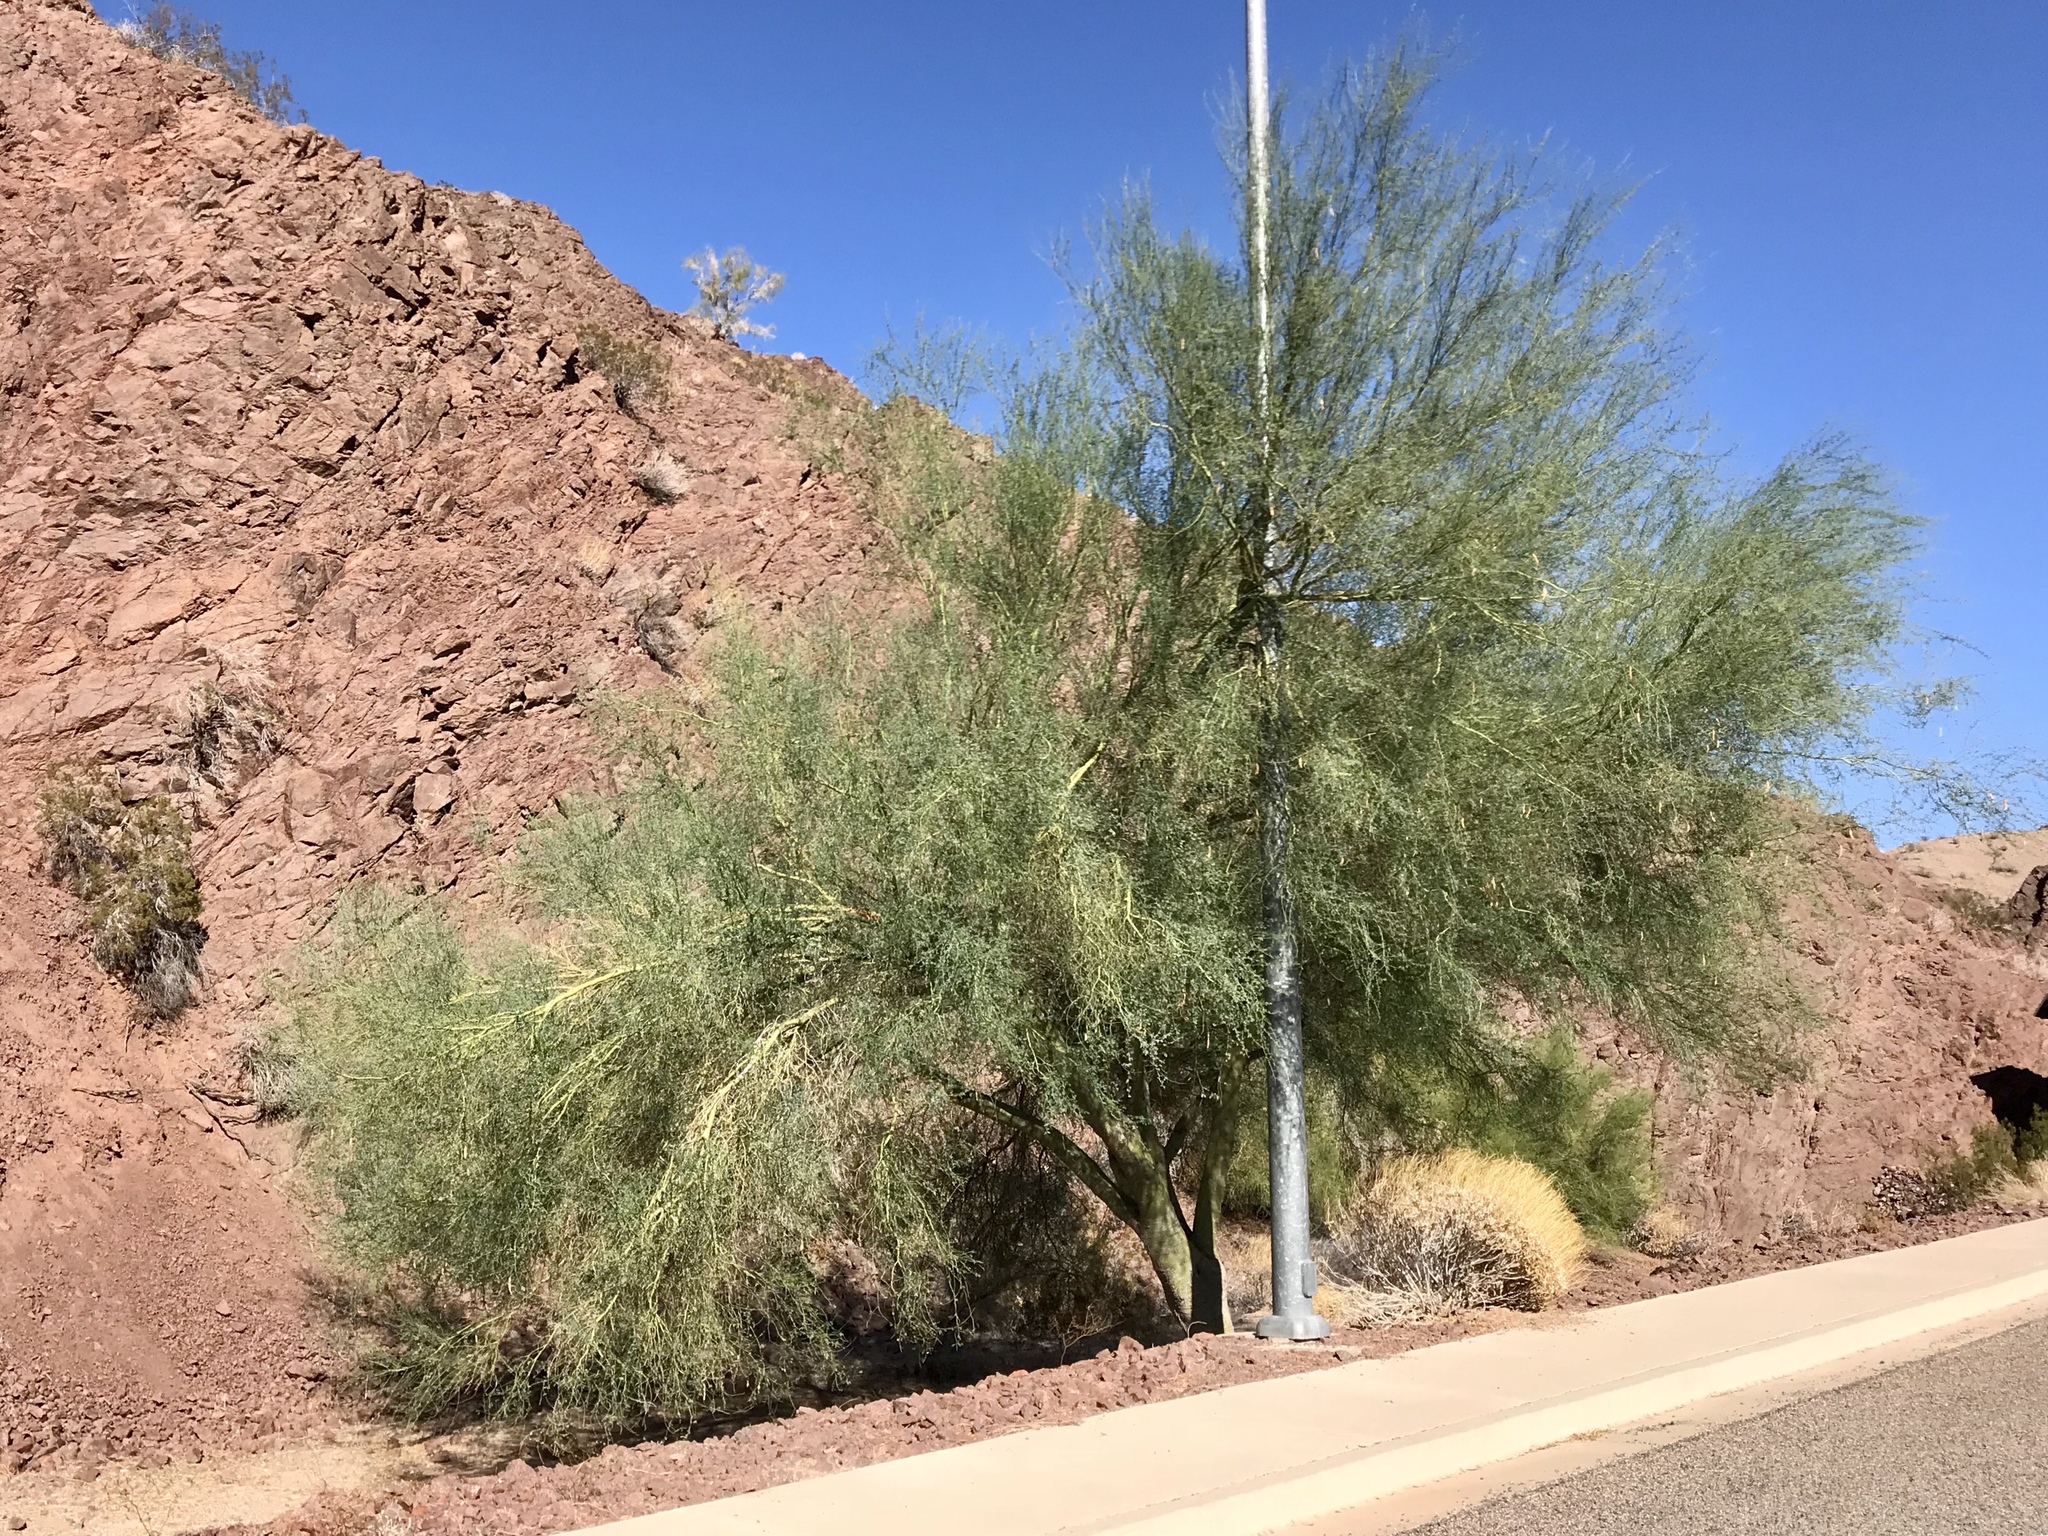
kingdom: Plantae
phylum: Tracheophyta
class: Magnoliopsida
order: Fabales
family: Fabaceae
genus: Parkinsonia
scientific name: Parkinsonia florida
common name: Blue paloverde
